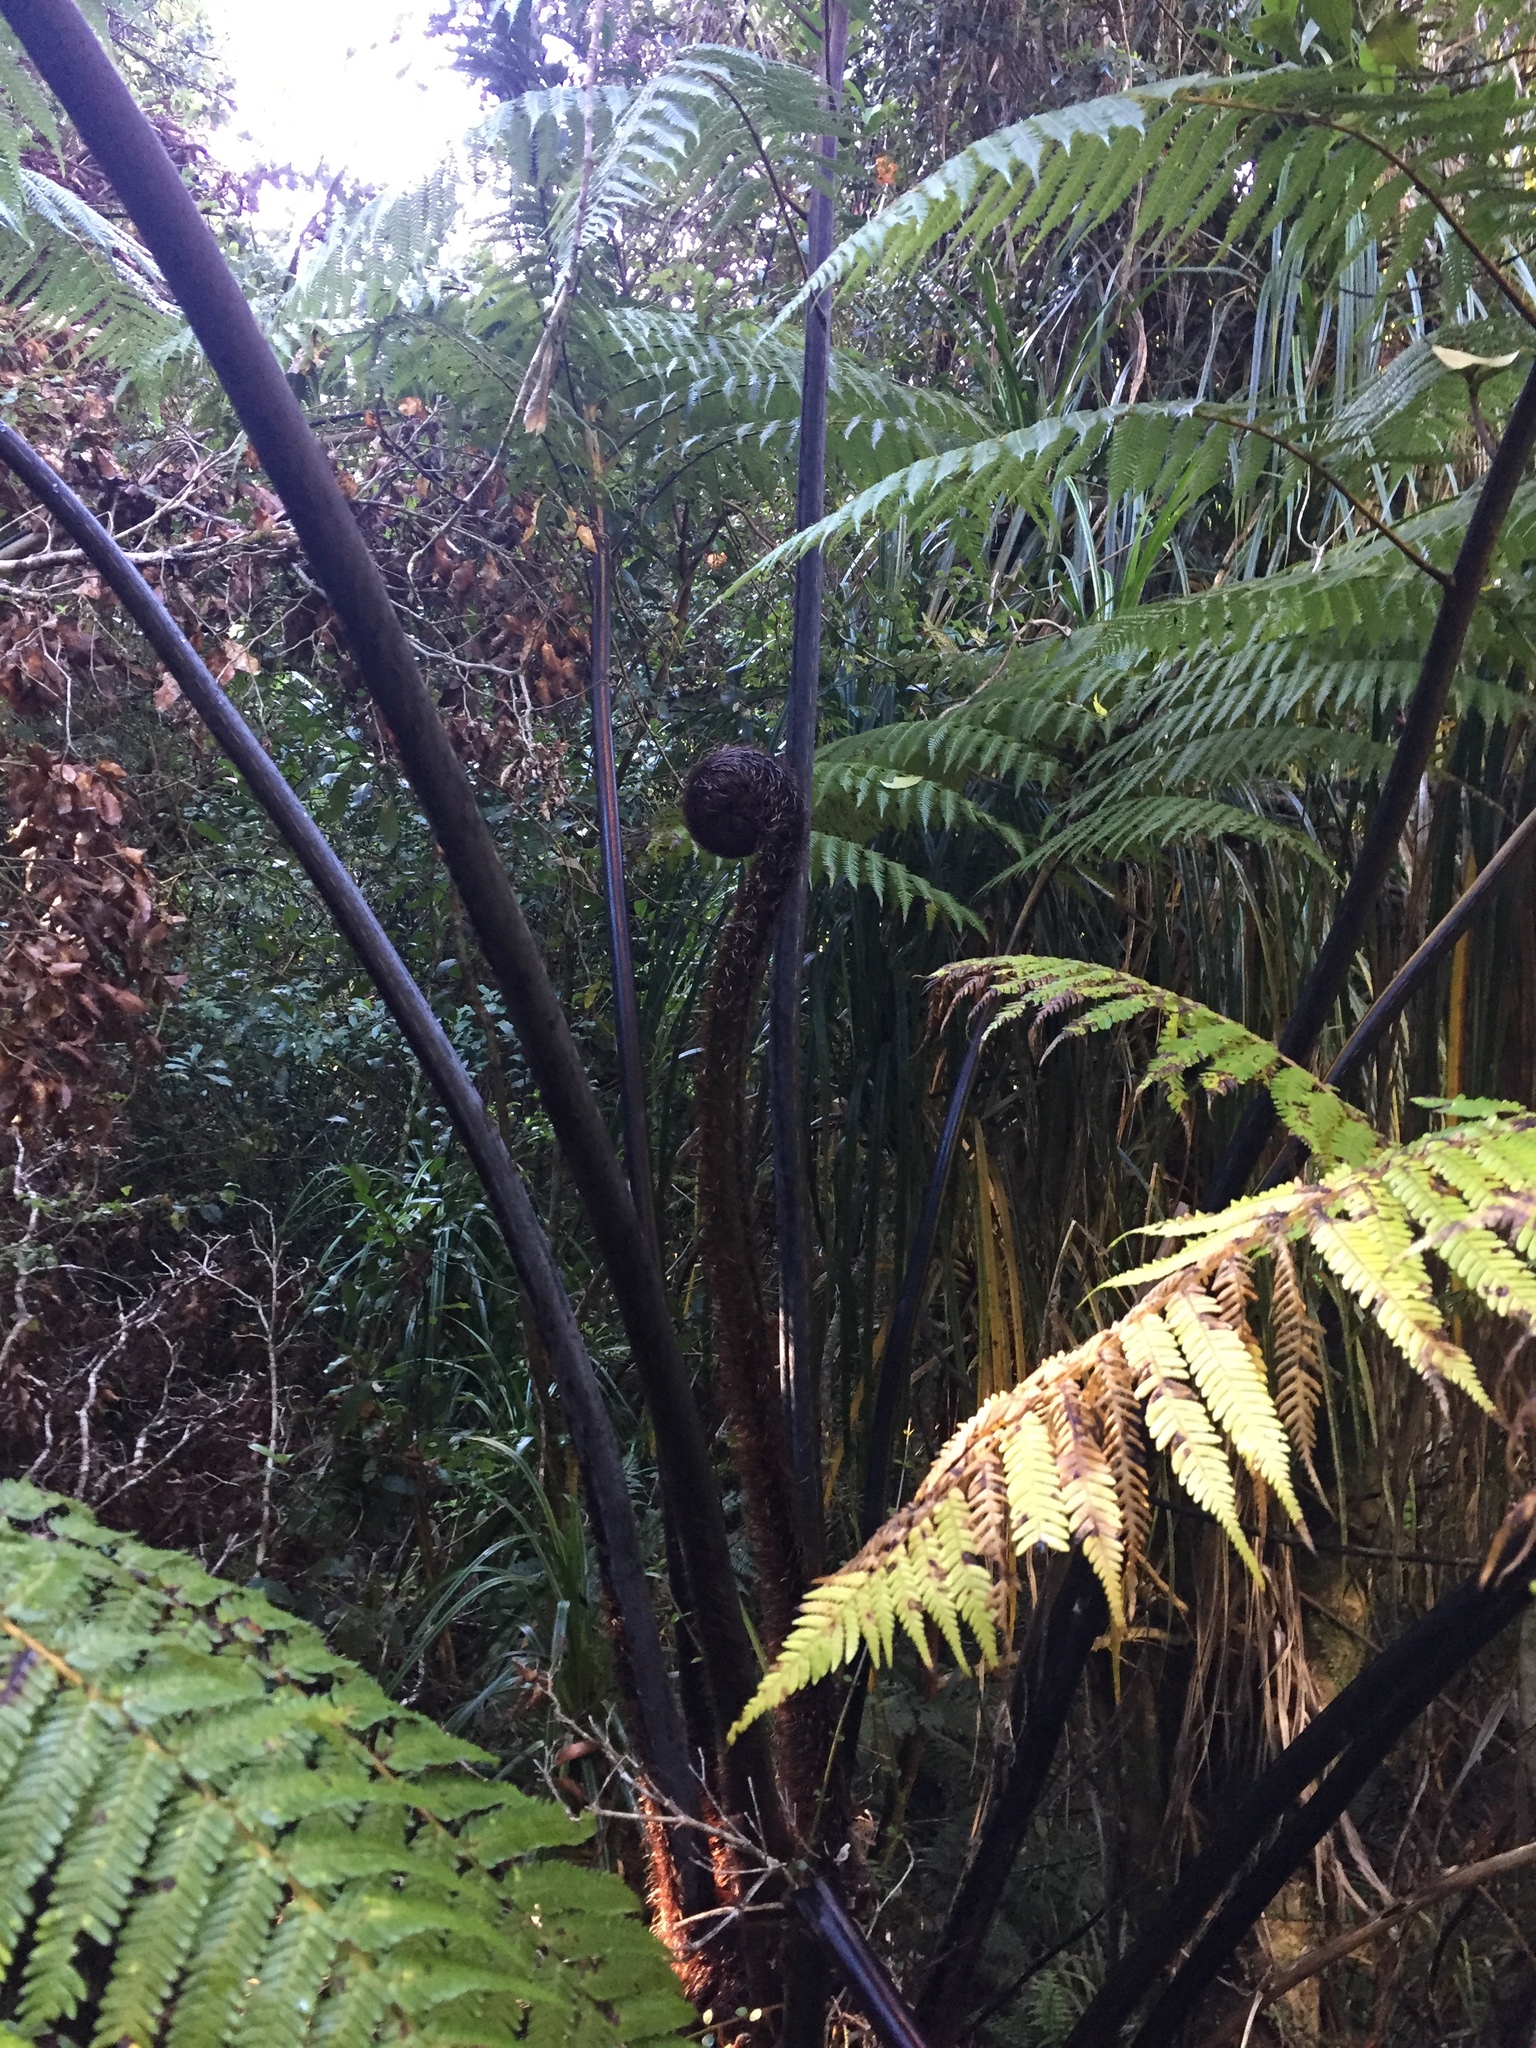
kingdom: Plantae
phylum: Tracheophyta
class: Polypodiopsida
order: Cyatheales
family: Cyatheaceae
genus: Sphaeropteris
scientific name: Sphaeropteris medullaris
